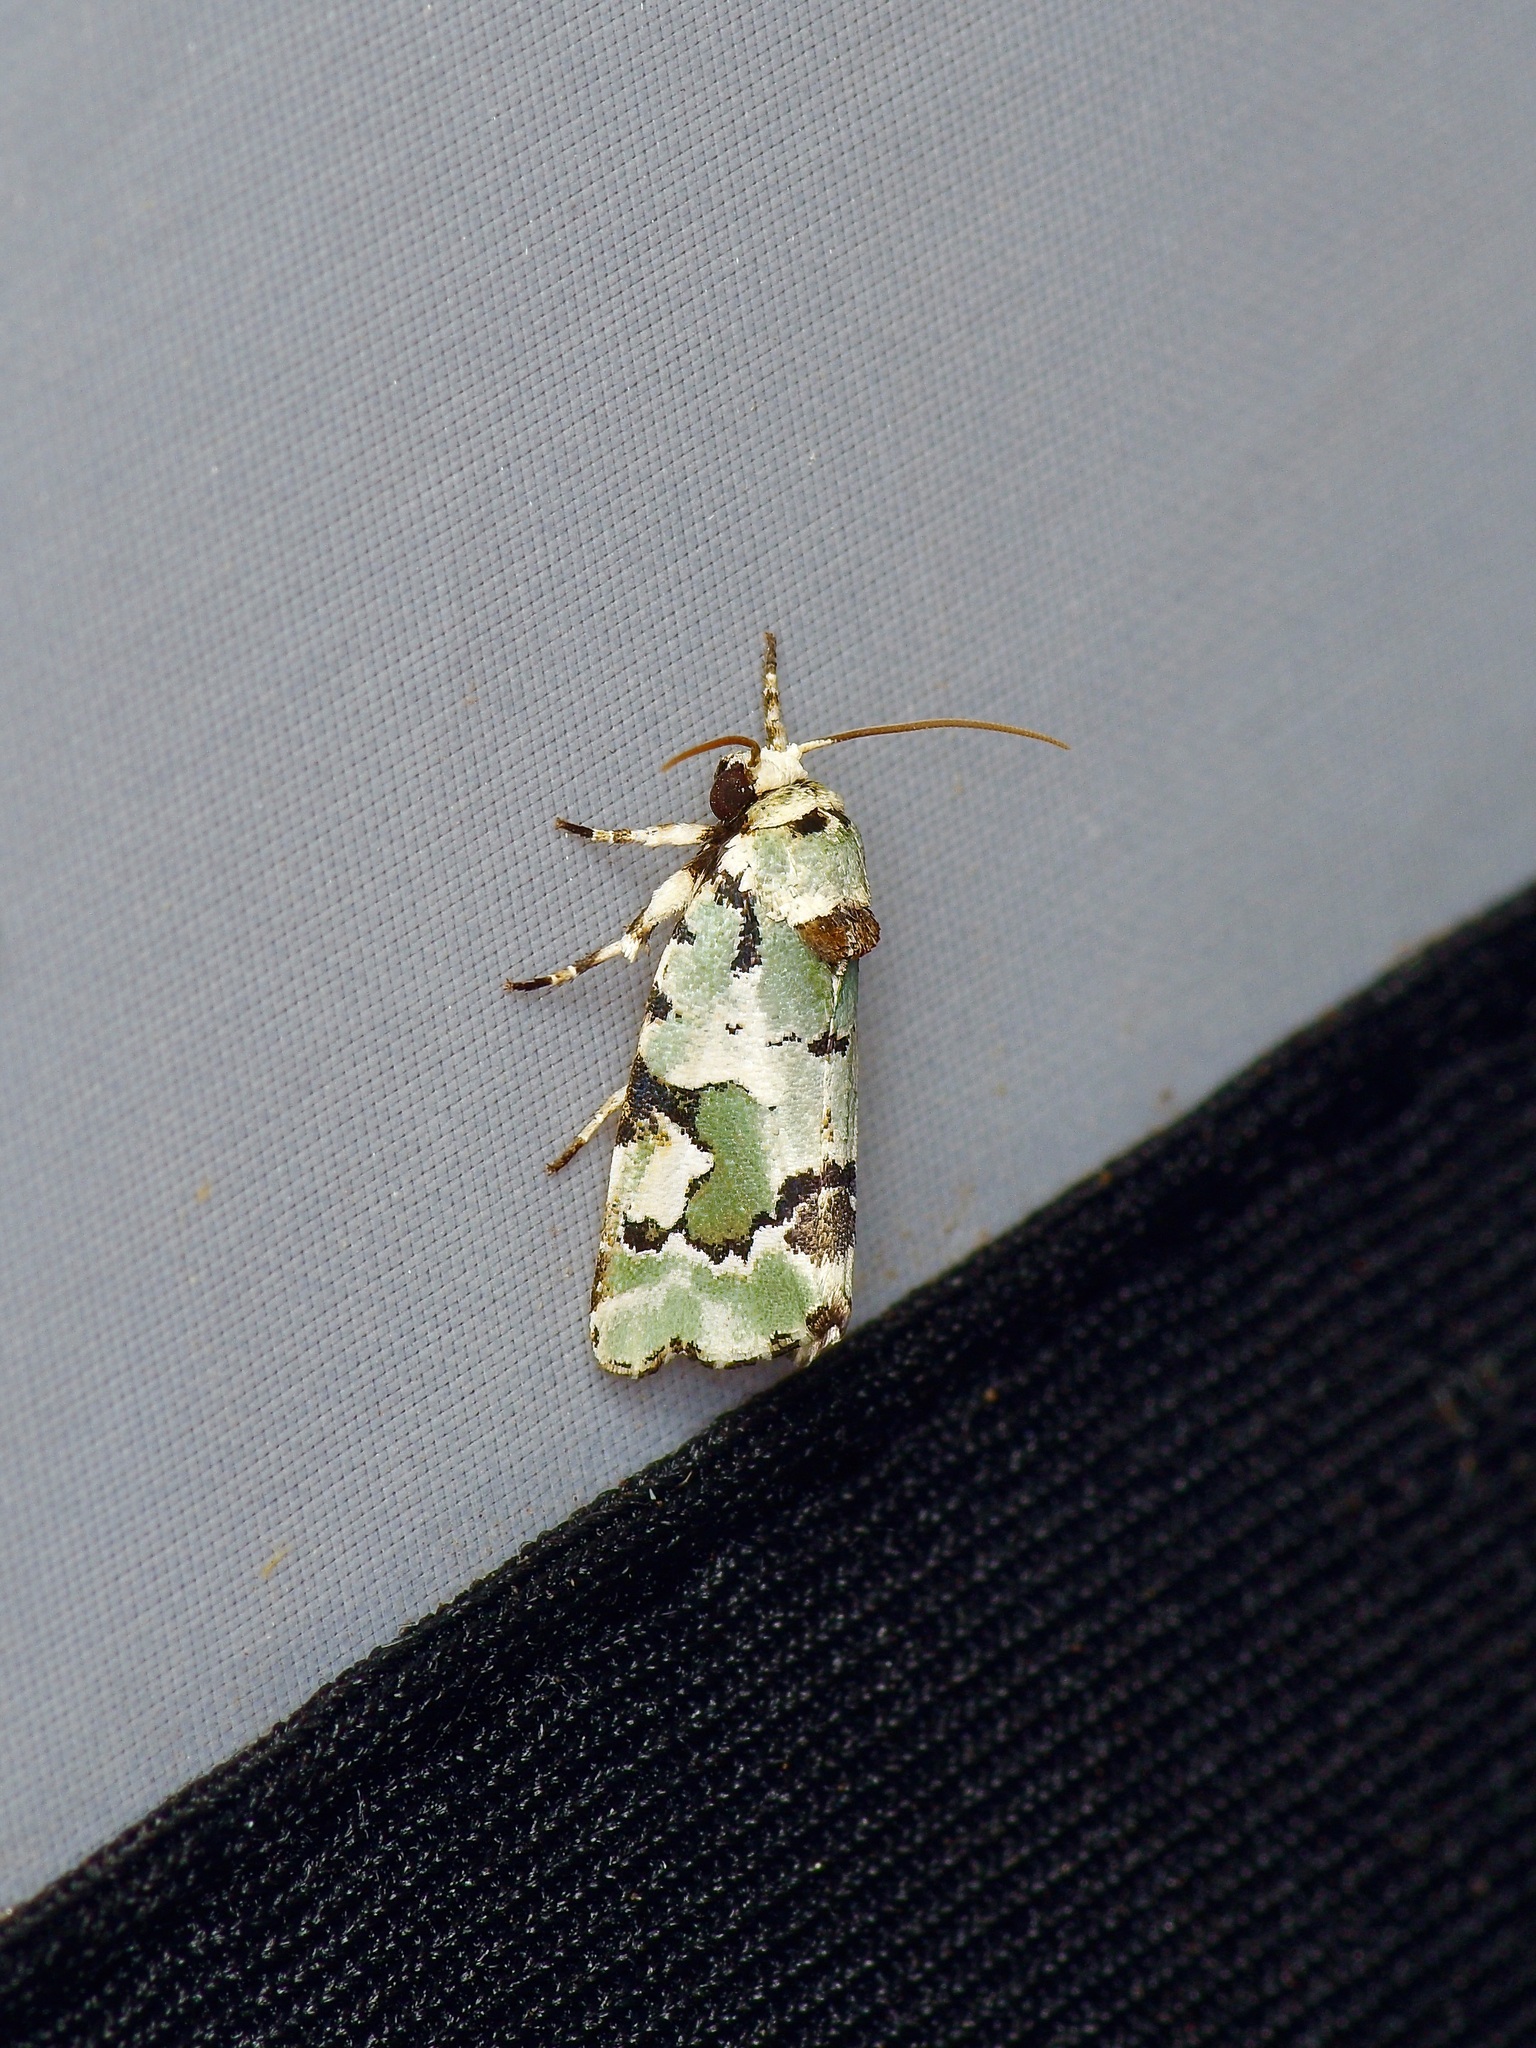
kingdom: Animalia
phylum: Arthropoda
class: Insecta
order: Lepidoptera
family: Noctuidae
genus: Emarginea
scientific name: Emarginea percara
